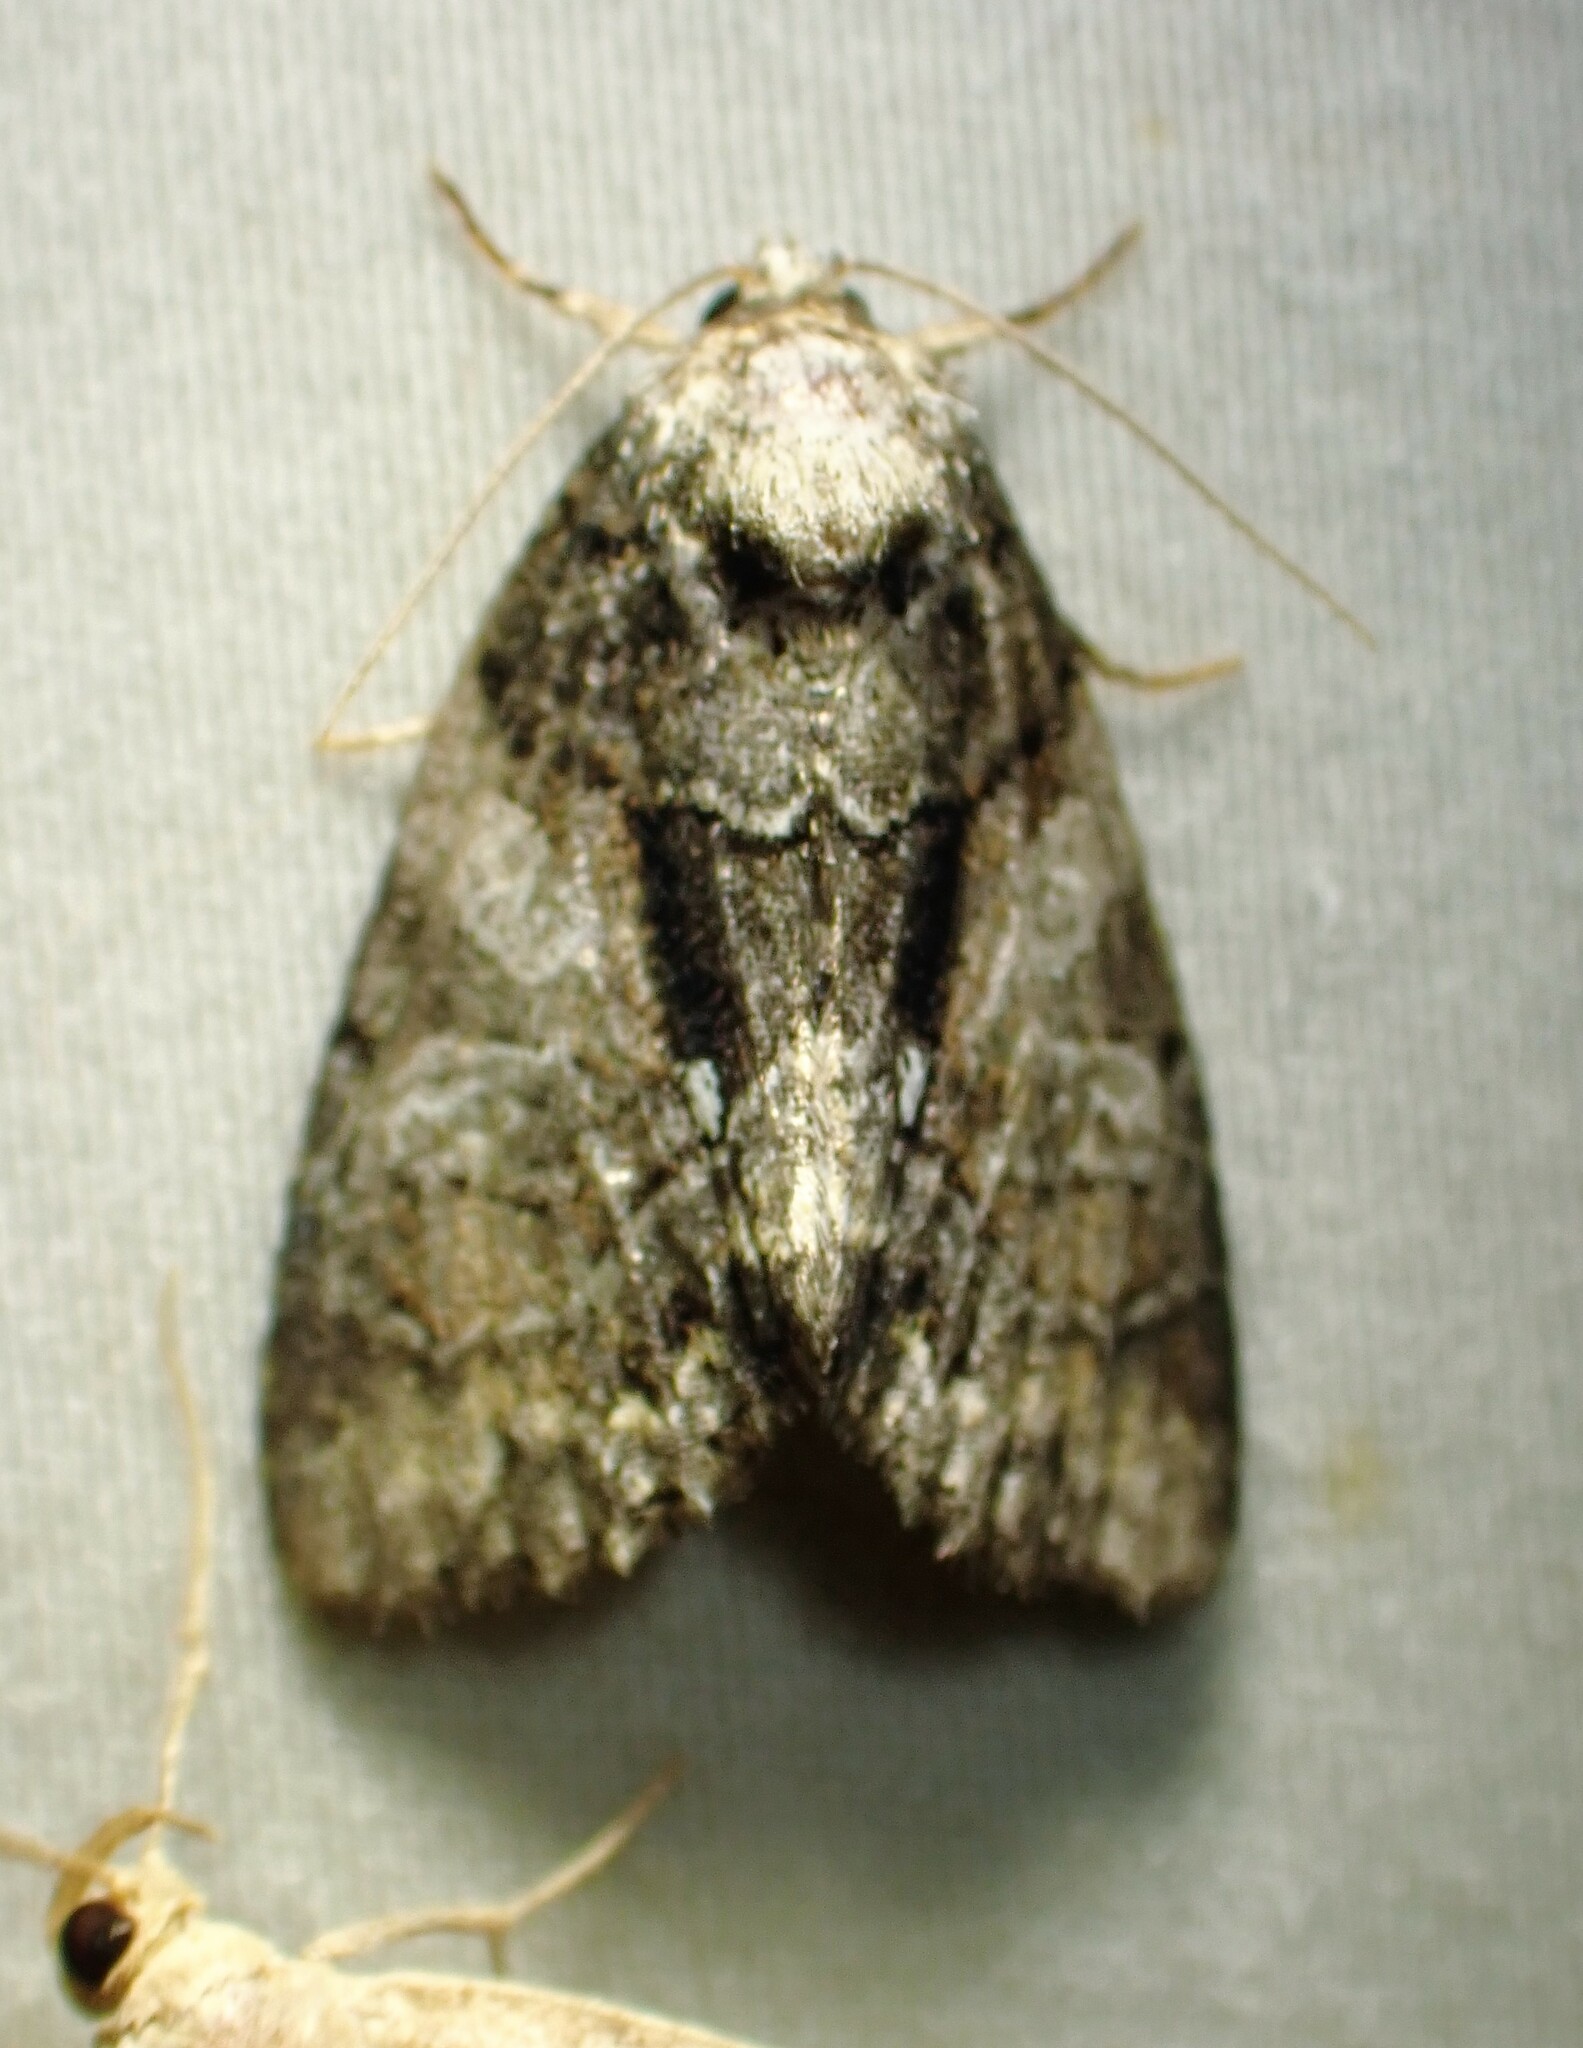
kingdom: Animalia
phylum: Arthropoda
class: Insecta
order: Lepidoptera
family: Noctuidae
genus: Chytonix
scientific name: Chytonix palliatricula
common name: Cloaked marvel
